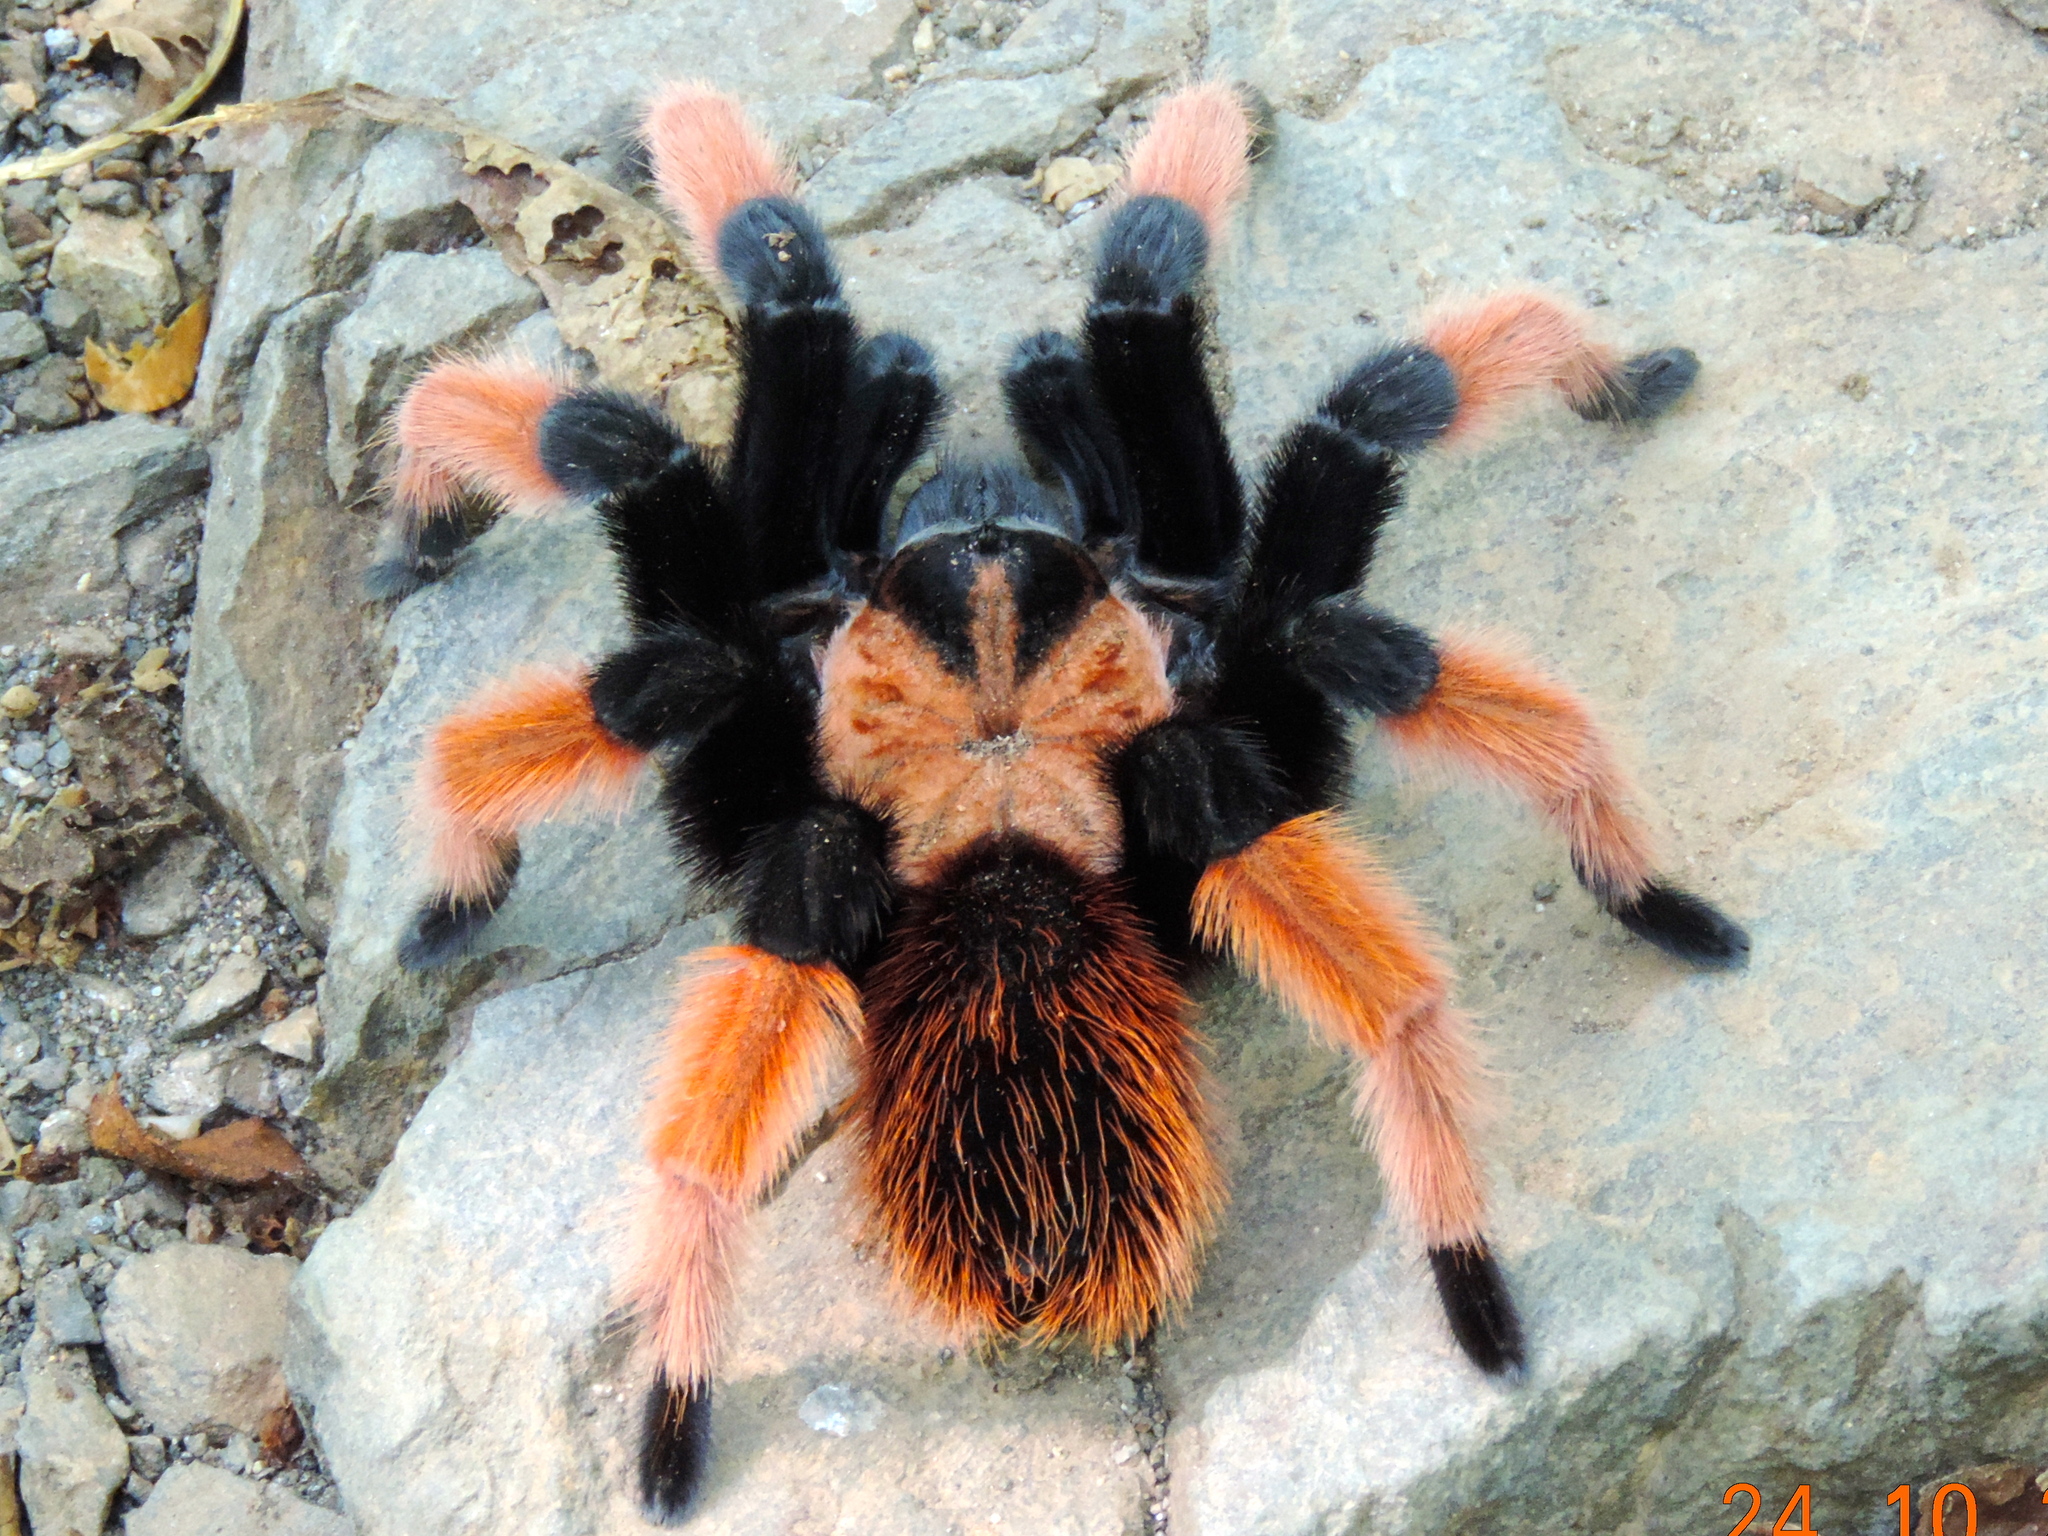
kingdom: Animalia
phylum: Arthropoda
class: Arachnida
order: Araneae
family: Theraphosidae
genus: Brachypelma
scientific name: Brachypelma emilia
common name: Mexican redleg
